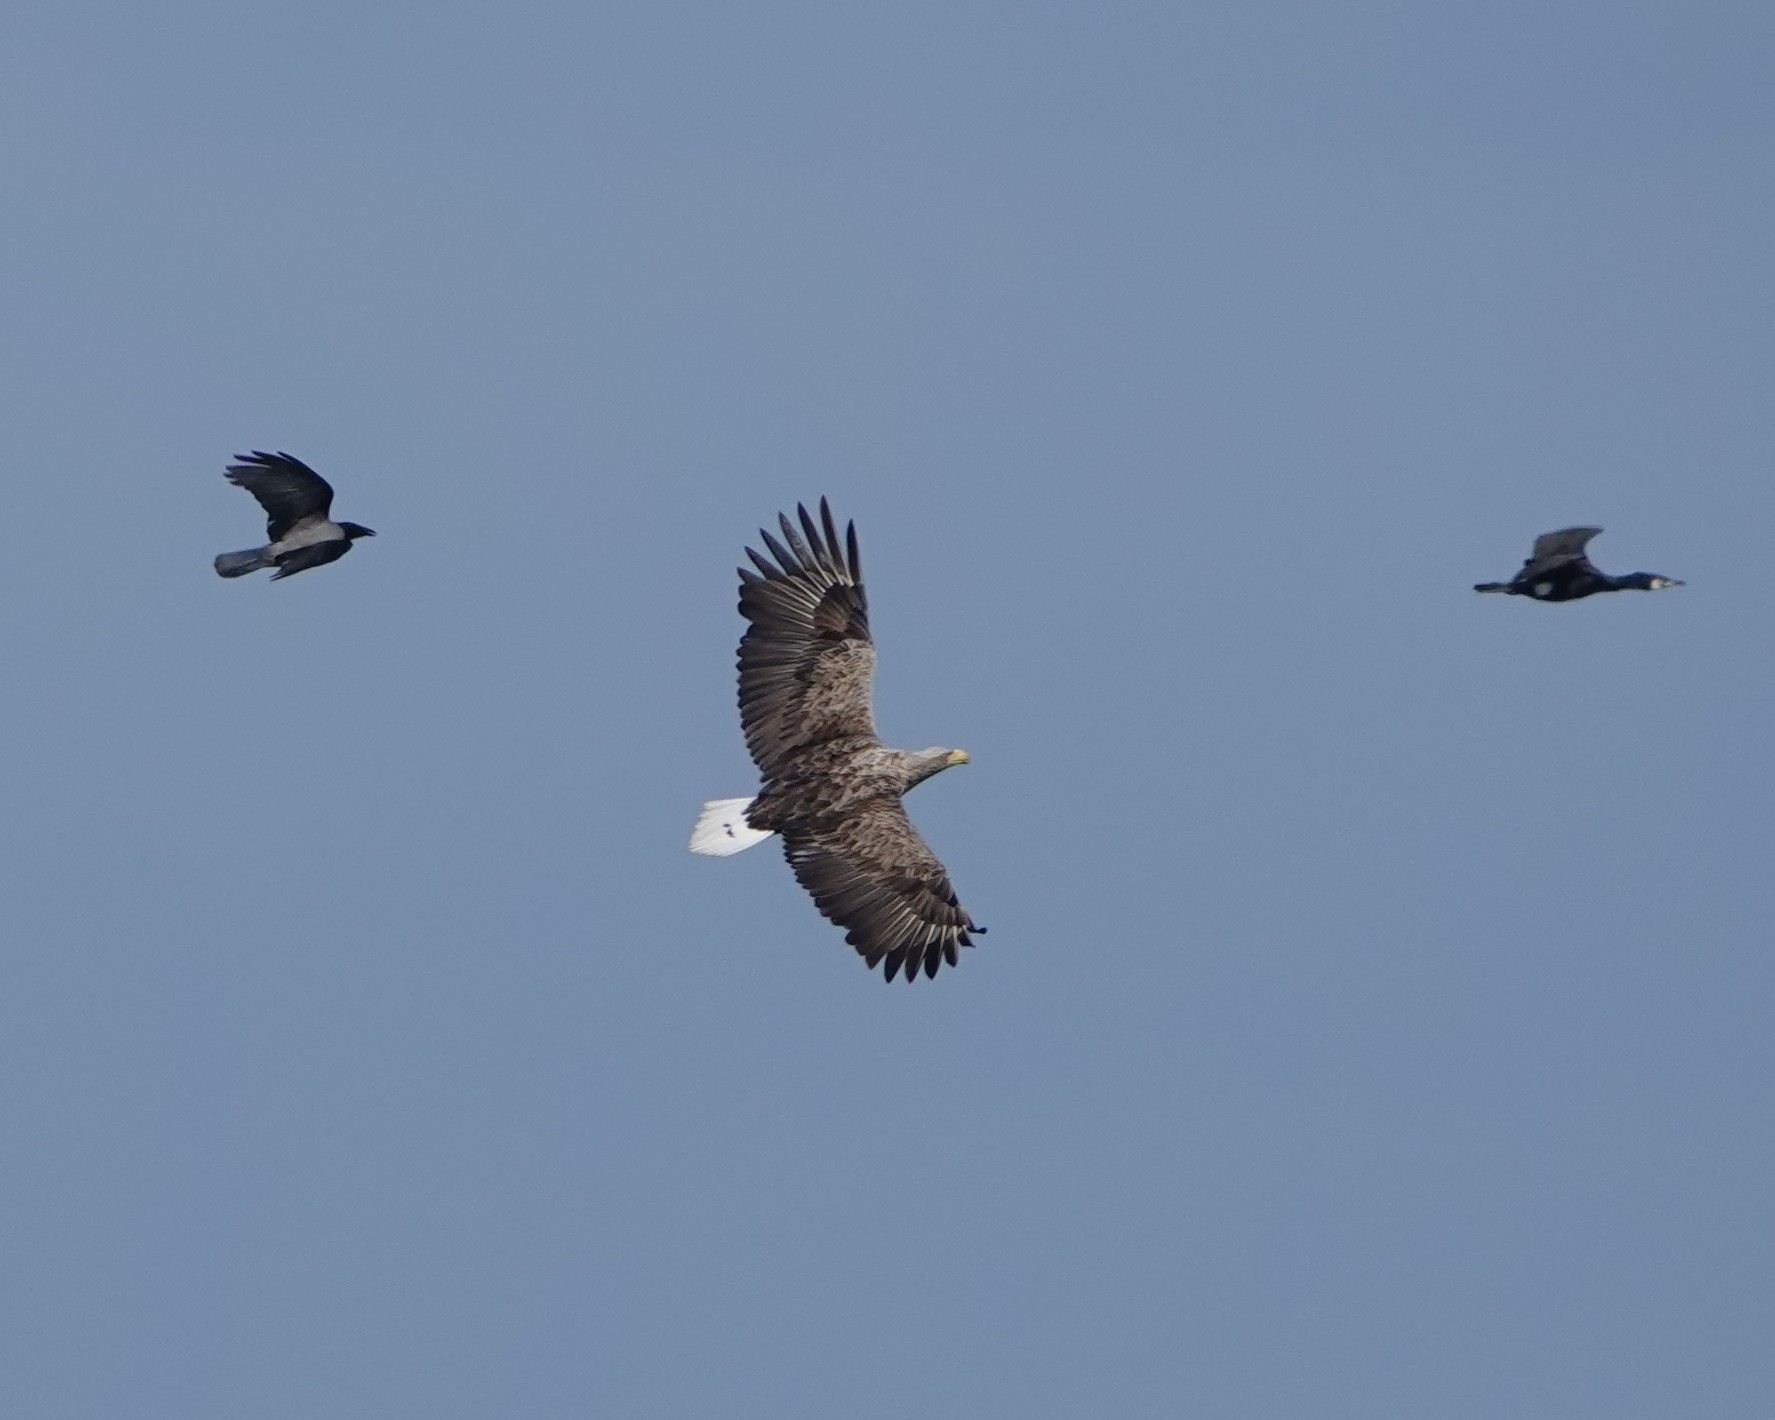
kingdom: Animalia
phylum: Chordata
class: Aves
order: Accipitriformes
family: Accipitridae
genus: Haliaeetus
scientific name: Haliaeetus albicilla
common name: White-tailed eagle
